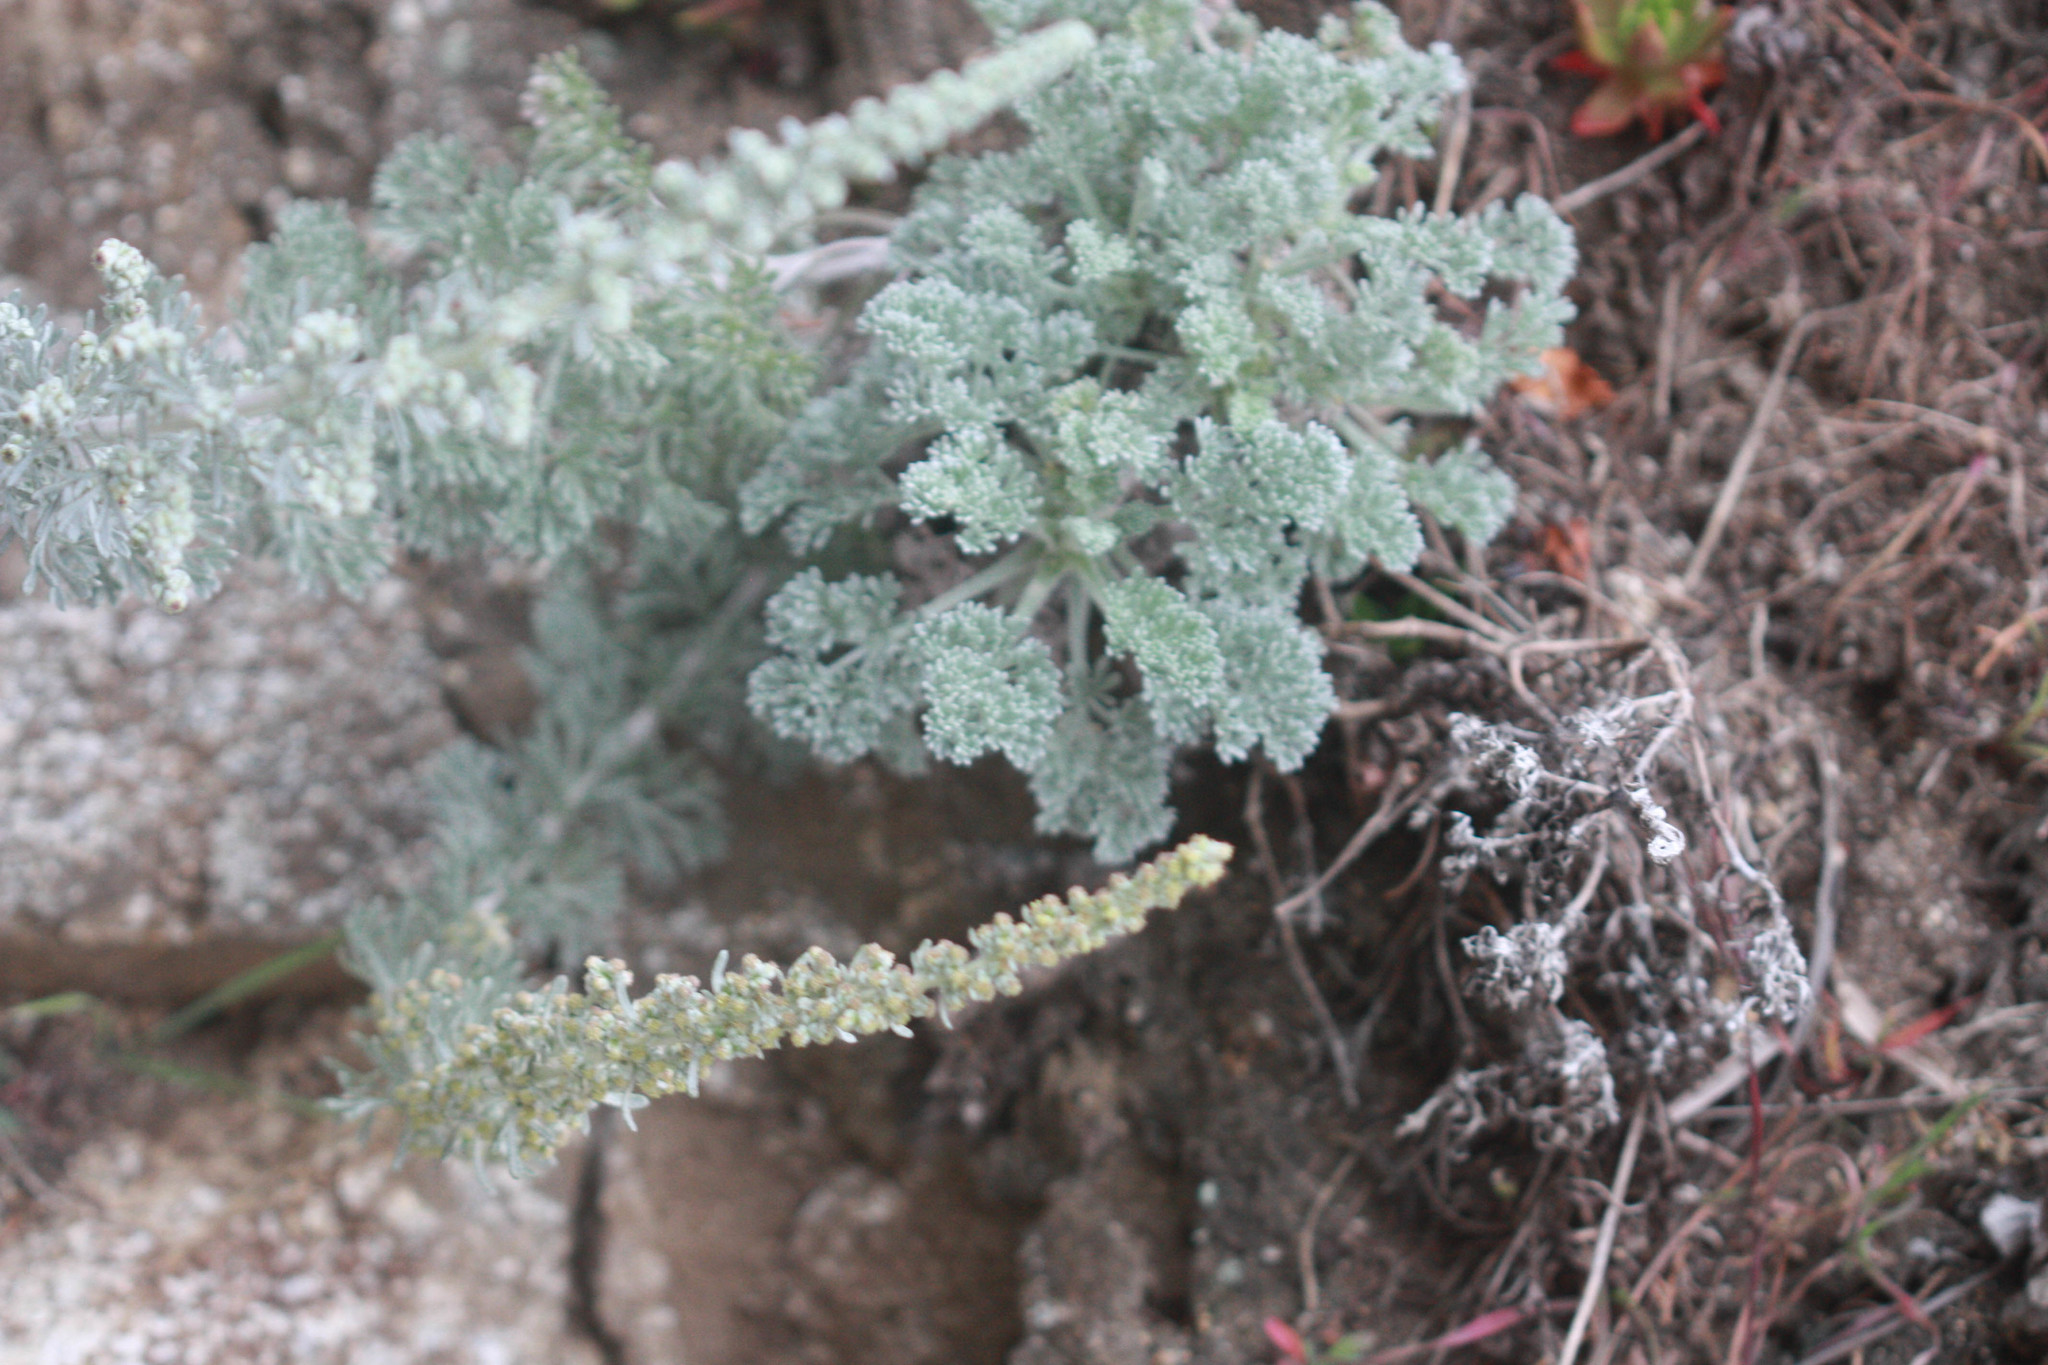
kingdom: Plantae
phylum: Tracheophyta
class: Magnoliopsida
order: Asterales
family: Asteraceae
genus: Artemisia
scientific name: Artemisia pycnocephala
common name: Coastal sagewort
